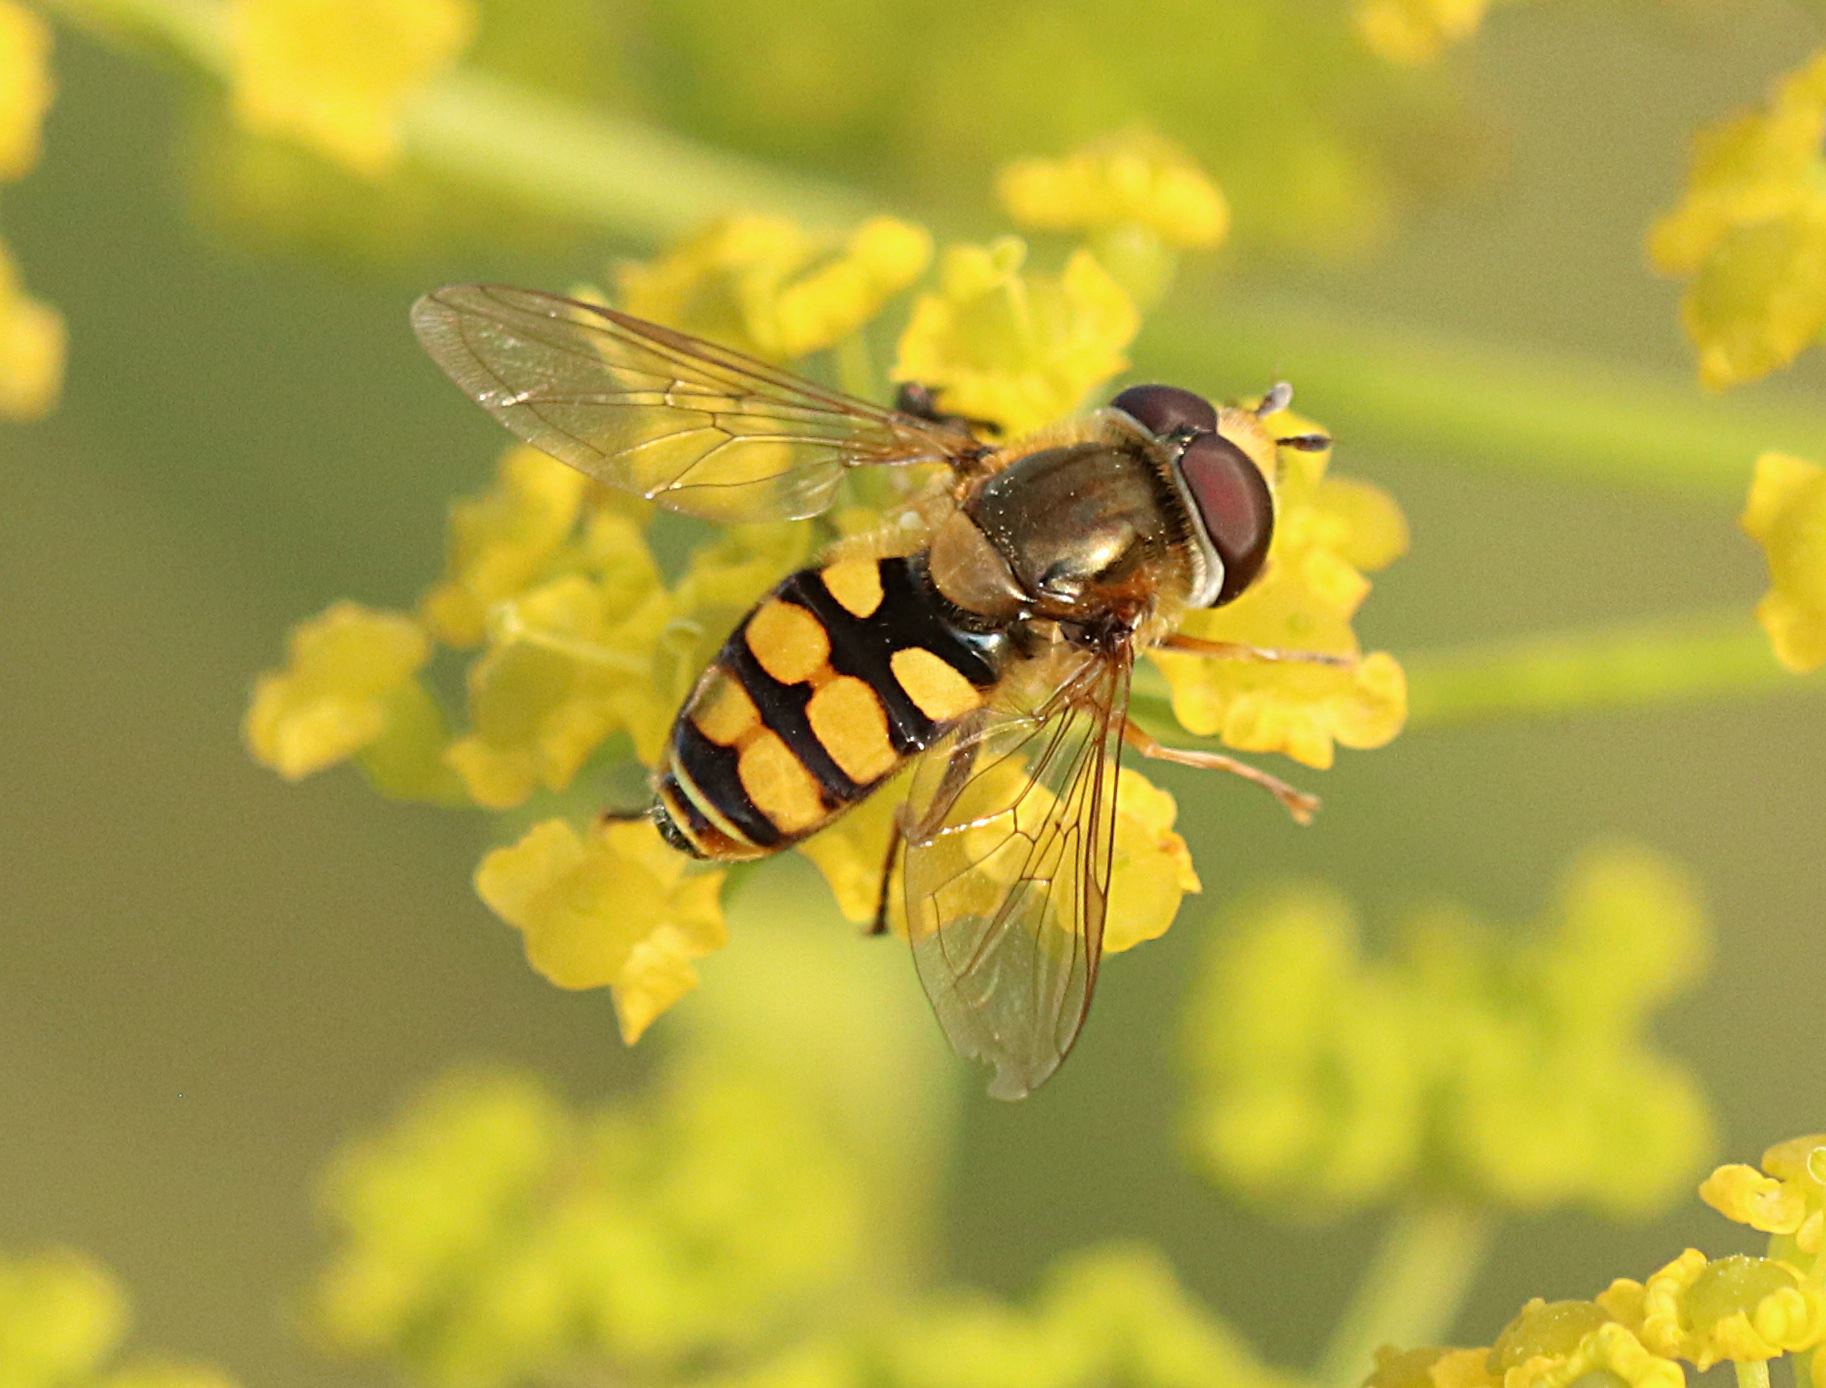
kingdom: Animalia
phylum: Arthropoda
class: Insecta
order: Diptera
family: Syrphidae
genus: Eupeodes
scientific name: Eupeodes corollae
